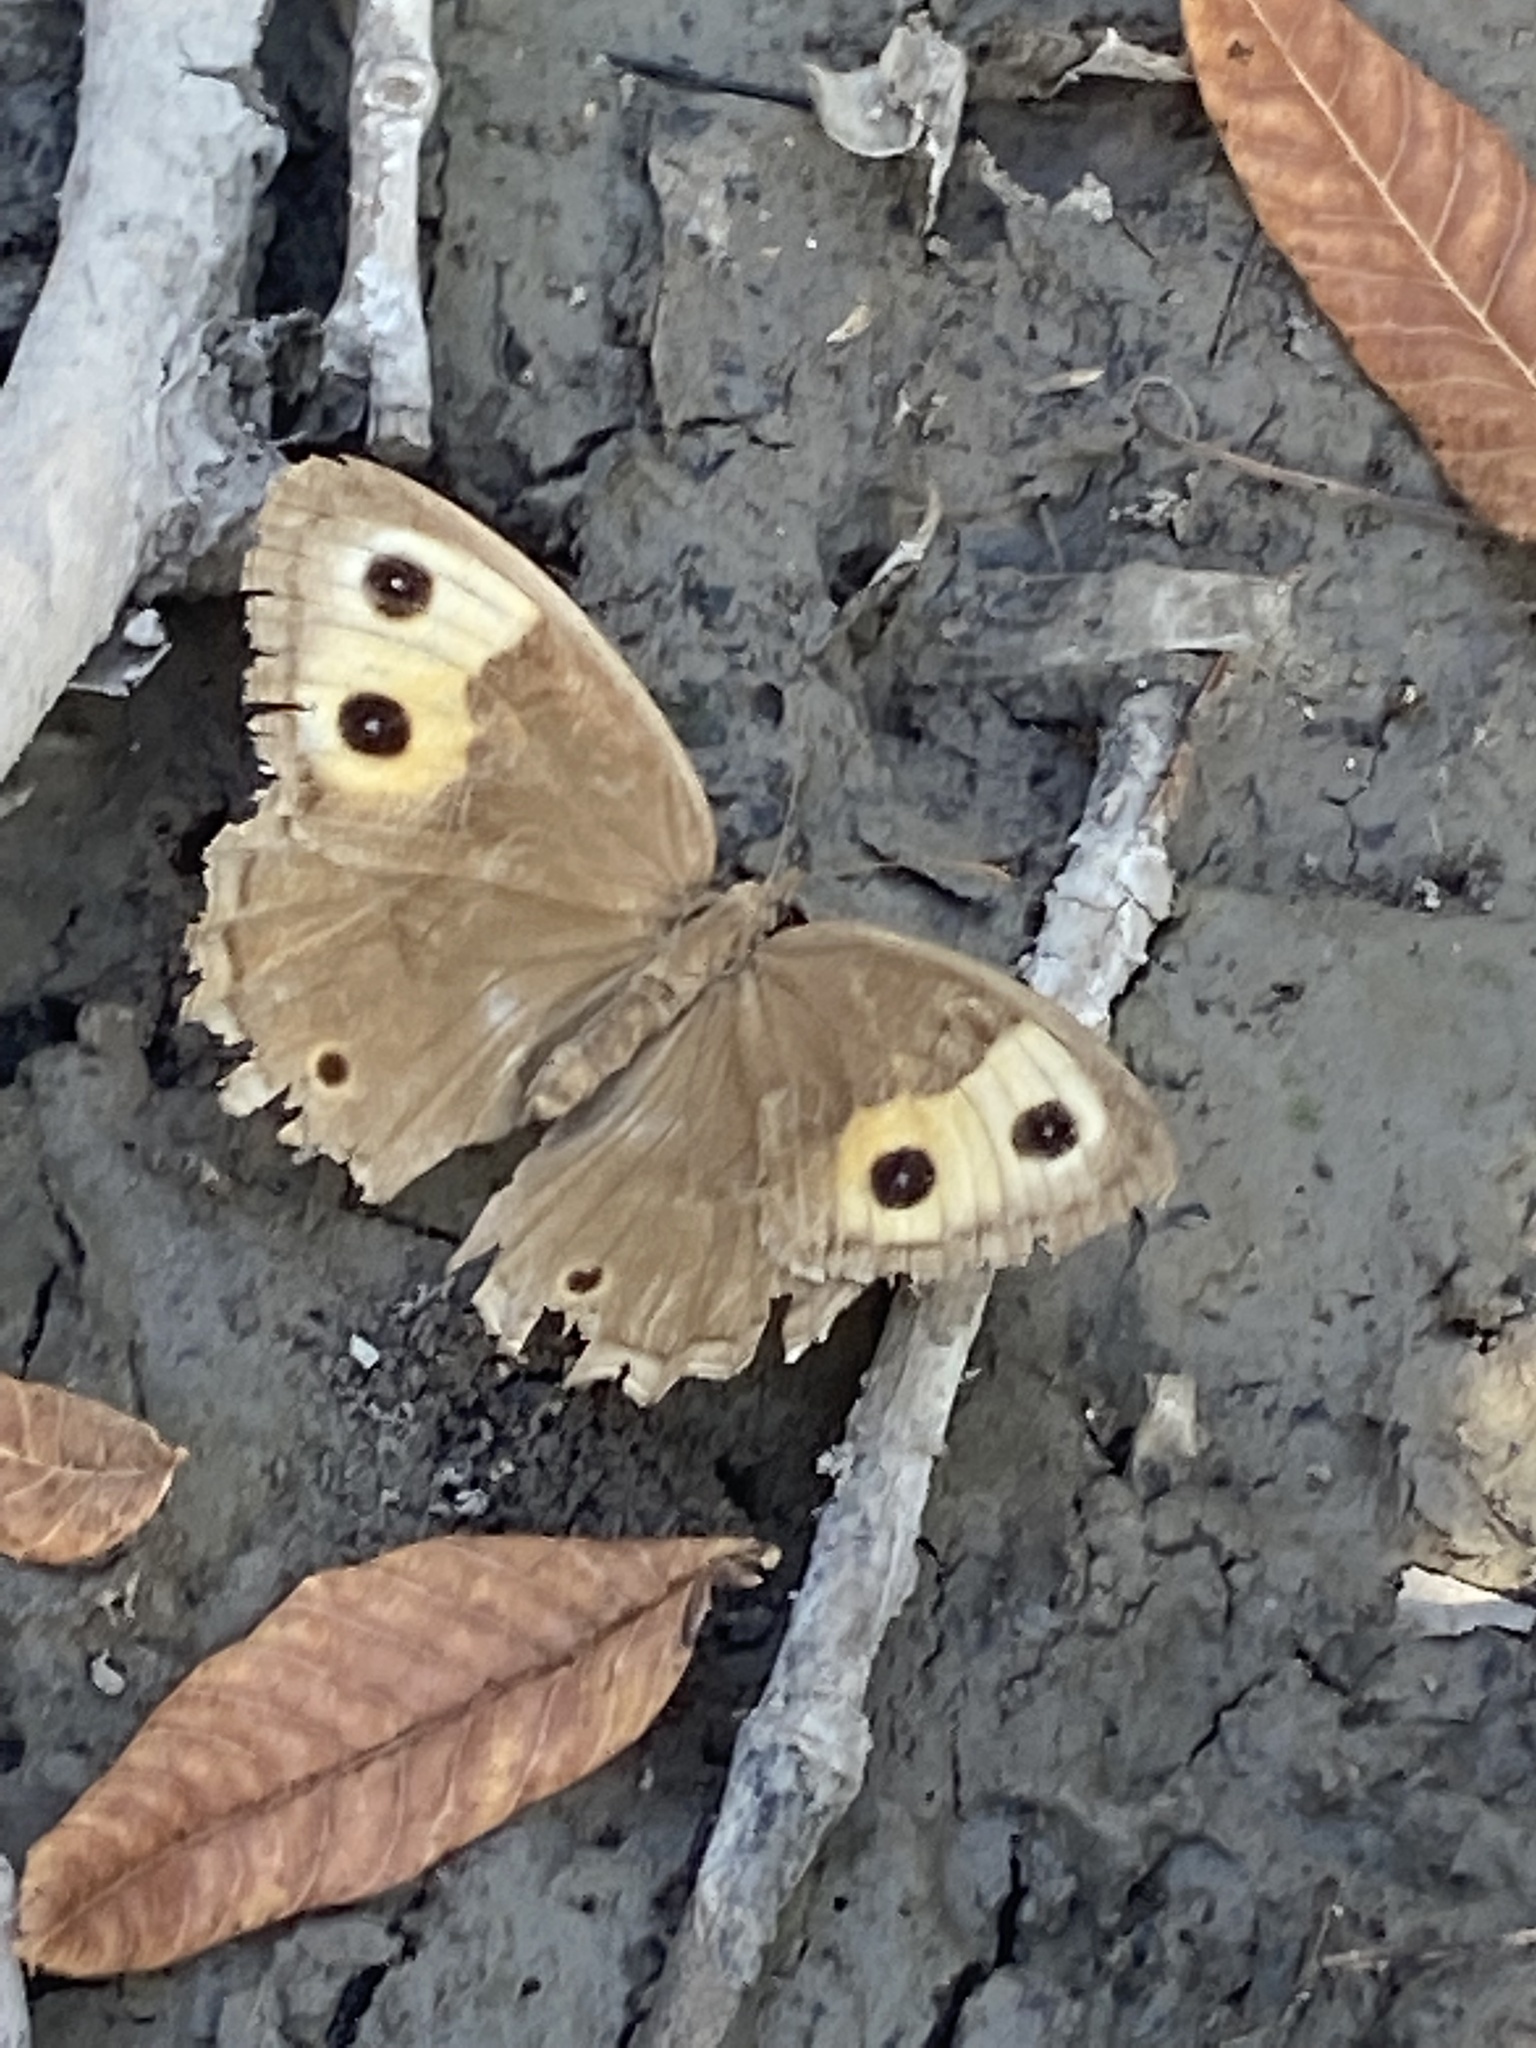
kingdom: Animalia
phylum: Arthropoda
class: Insecta
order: Lepidoptera
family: Nymphalidae
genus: Cercyonis
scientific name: Cercyonis pegala
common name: Common wood-nymph
